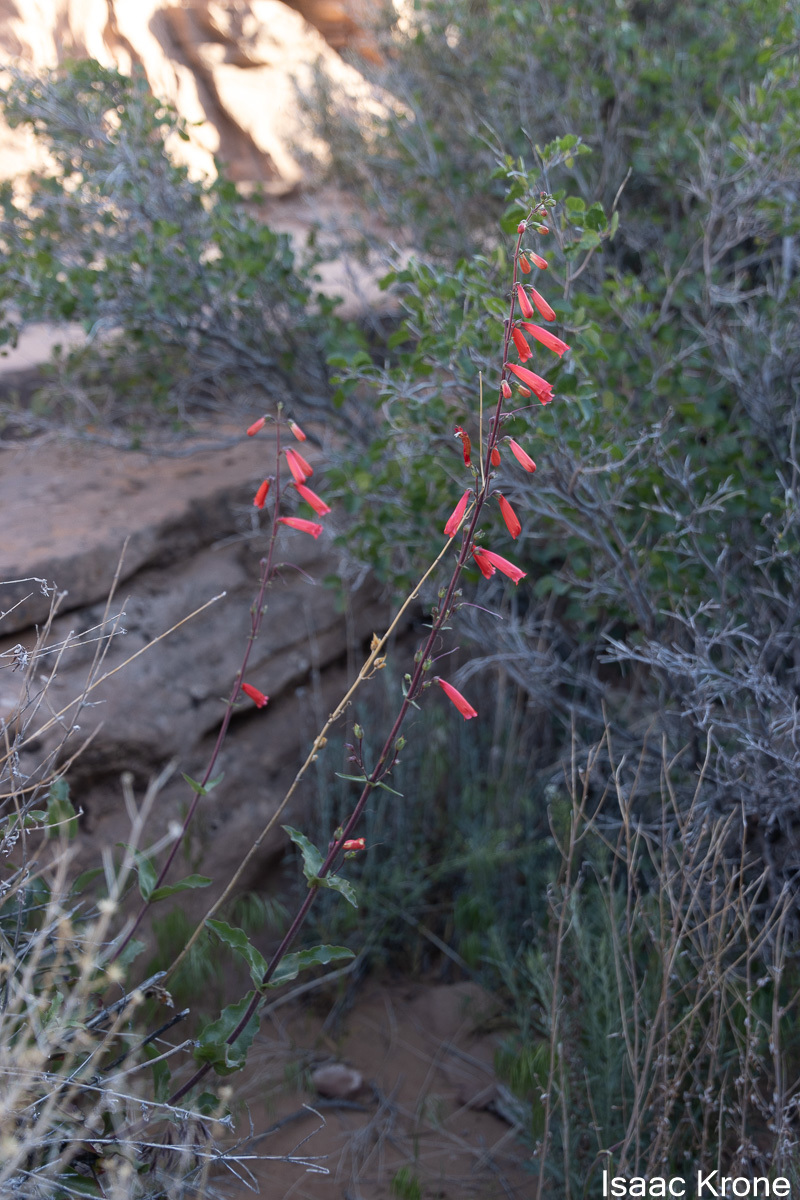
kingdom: Plantae
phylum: Tracheophyta
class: Magnoliopsida
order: Lamiales
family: Plantaginaceae
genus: Penstemon
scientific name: Penstemon eatonii
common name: Eaton's penstemon
